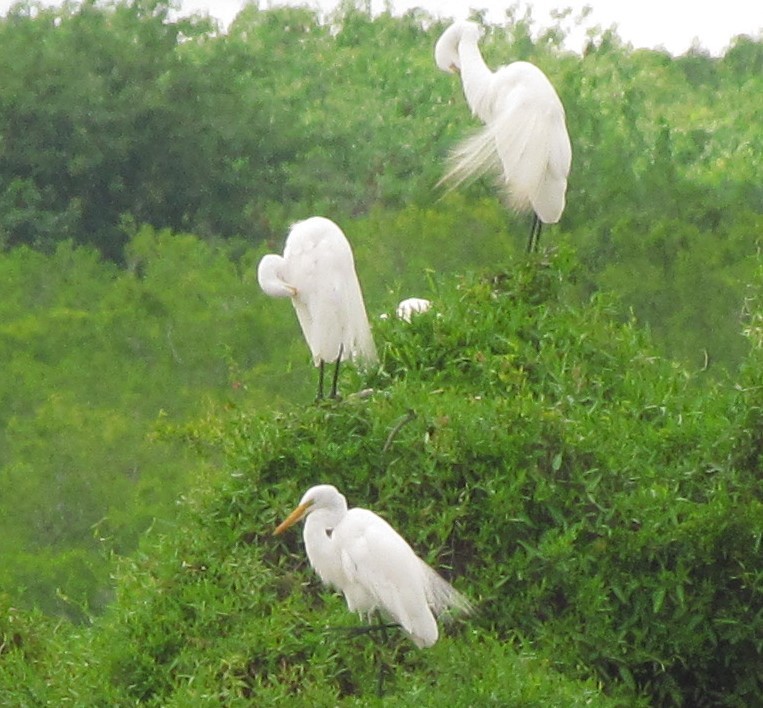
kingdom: Animalia
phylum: Chordata
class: Aves
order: Pelecaniformes
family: Ardeidae
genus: Ardea
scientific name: Ardea alba
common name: Great egret
